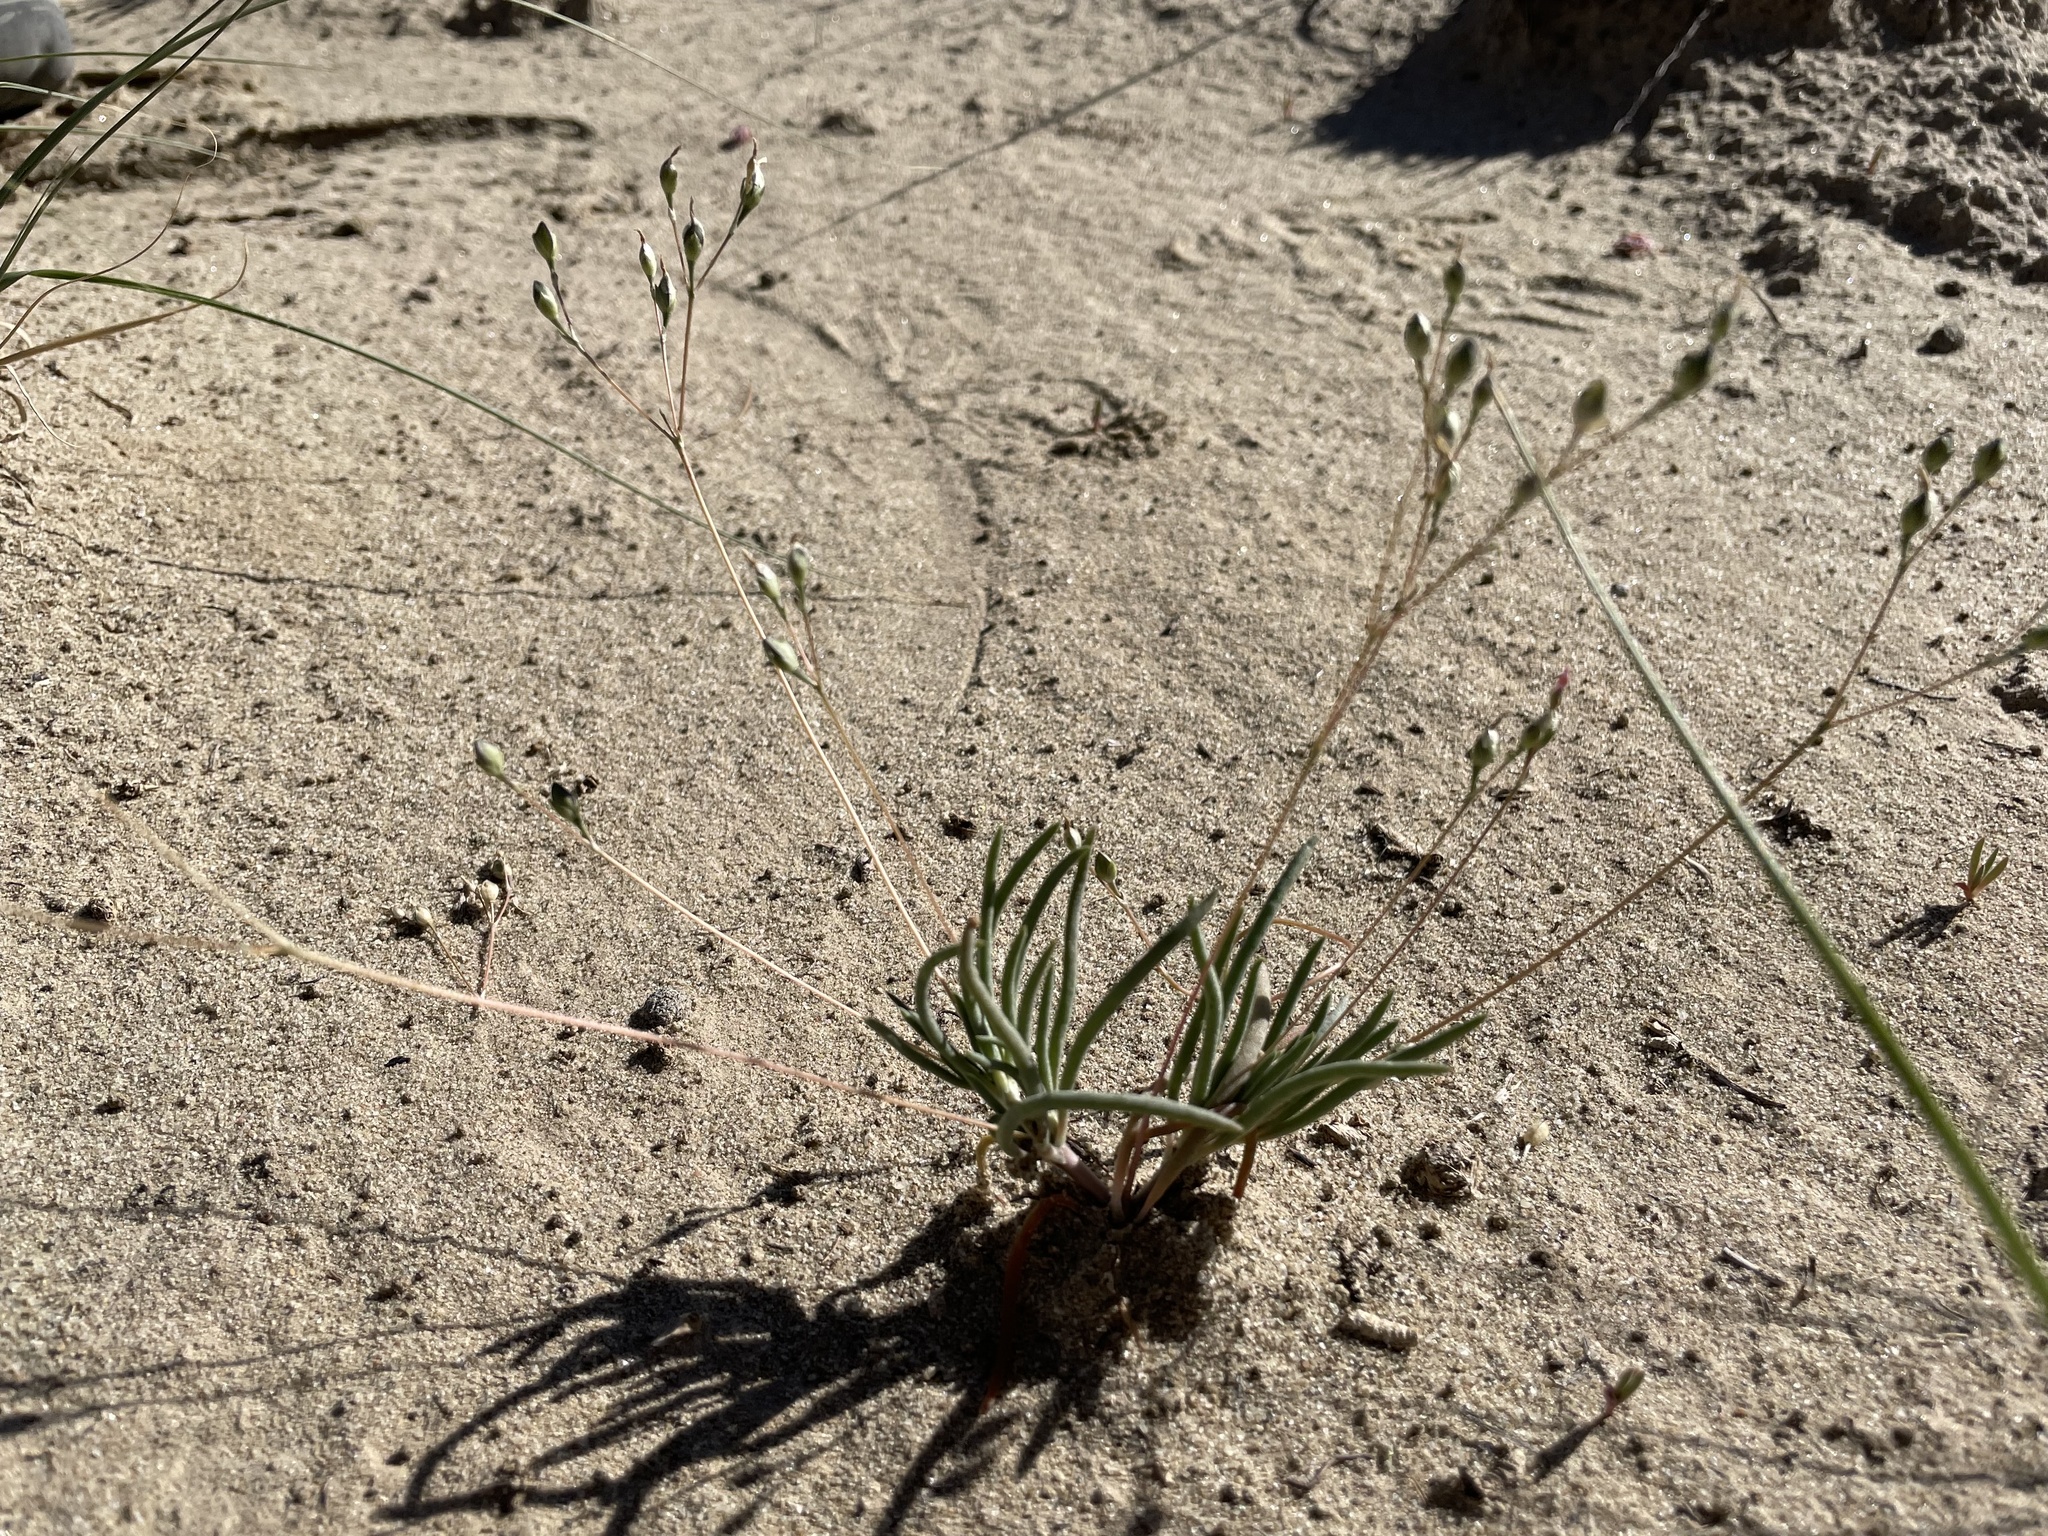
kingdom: Plantae
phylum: Tracheophyta
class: Magnoliopsida
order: Caryophyllales
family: Montiaceae
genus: Phemeranthus
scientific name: Phemeranthus confertiflorus
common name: New mexico fameflower
